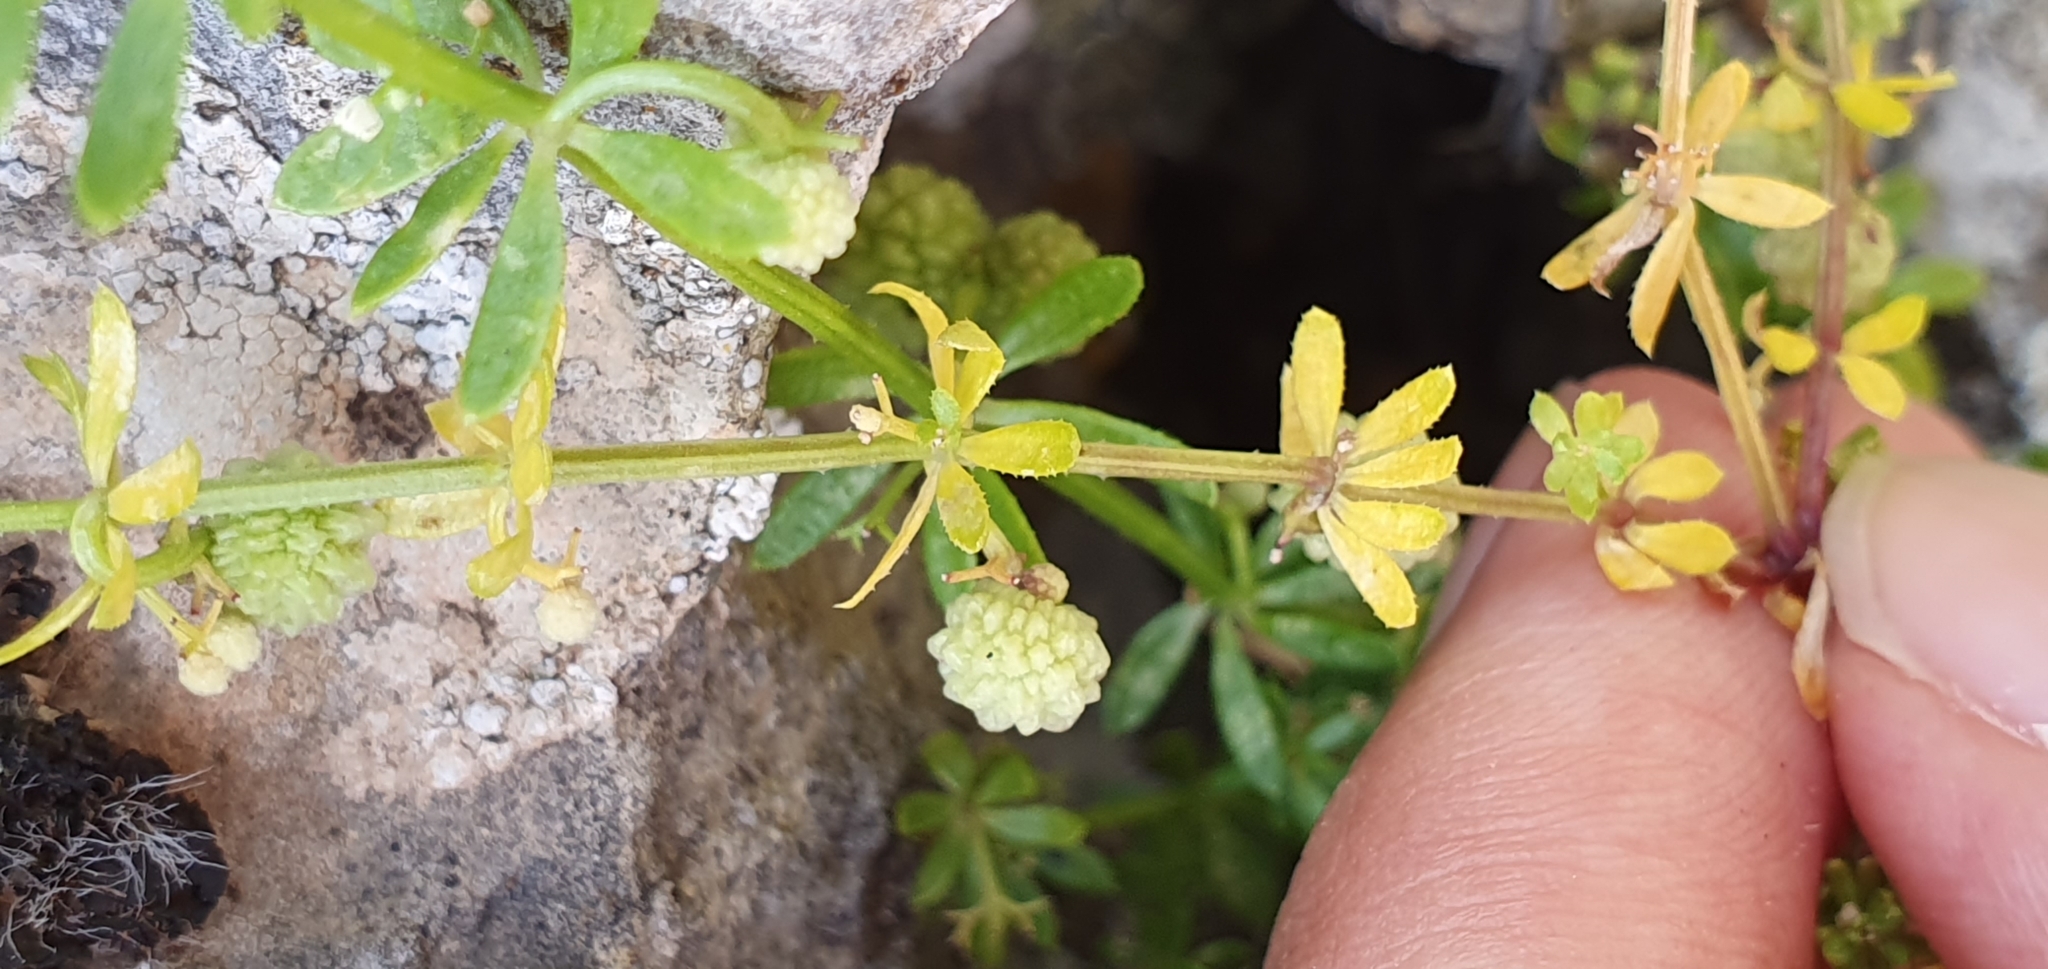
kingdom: Plantae
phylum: Tracheophyta
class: Magnoliopsida
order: Gentianales
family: Rubiaceae
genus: Galium
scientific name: Galium verrucosum
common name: Warty bedstraw
